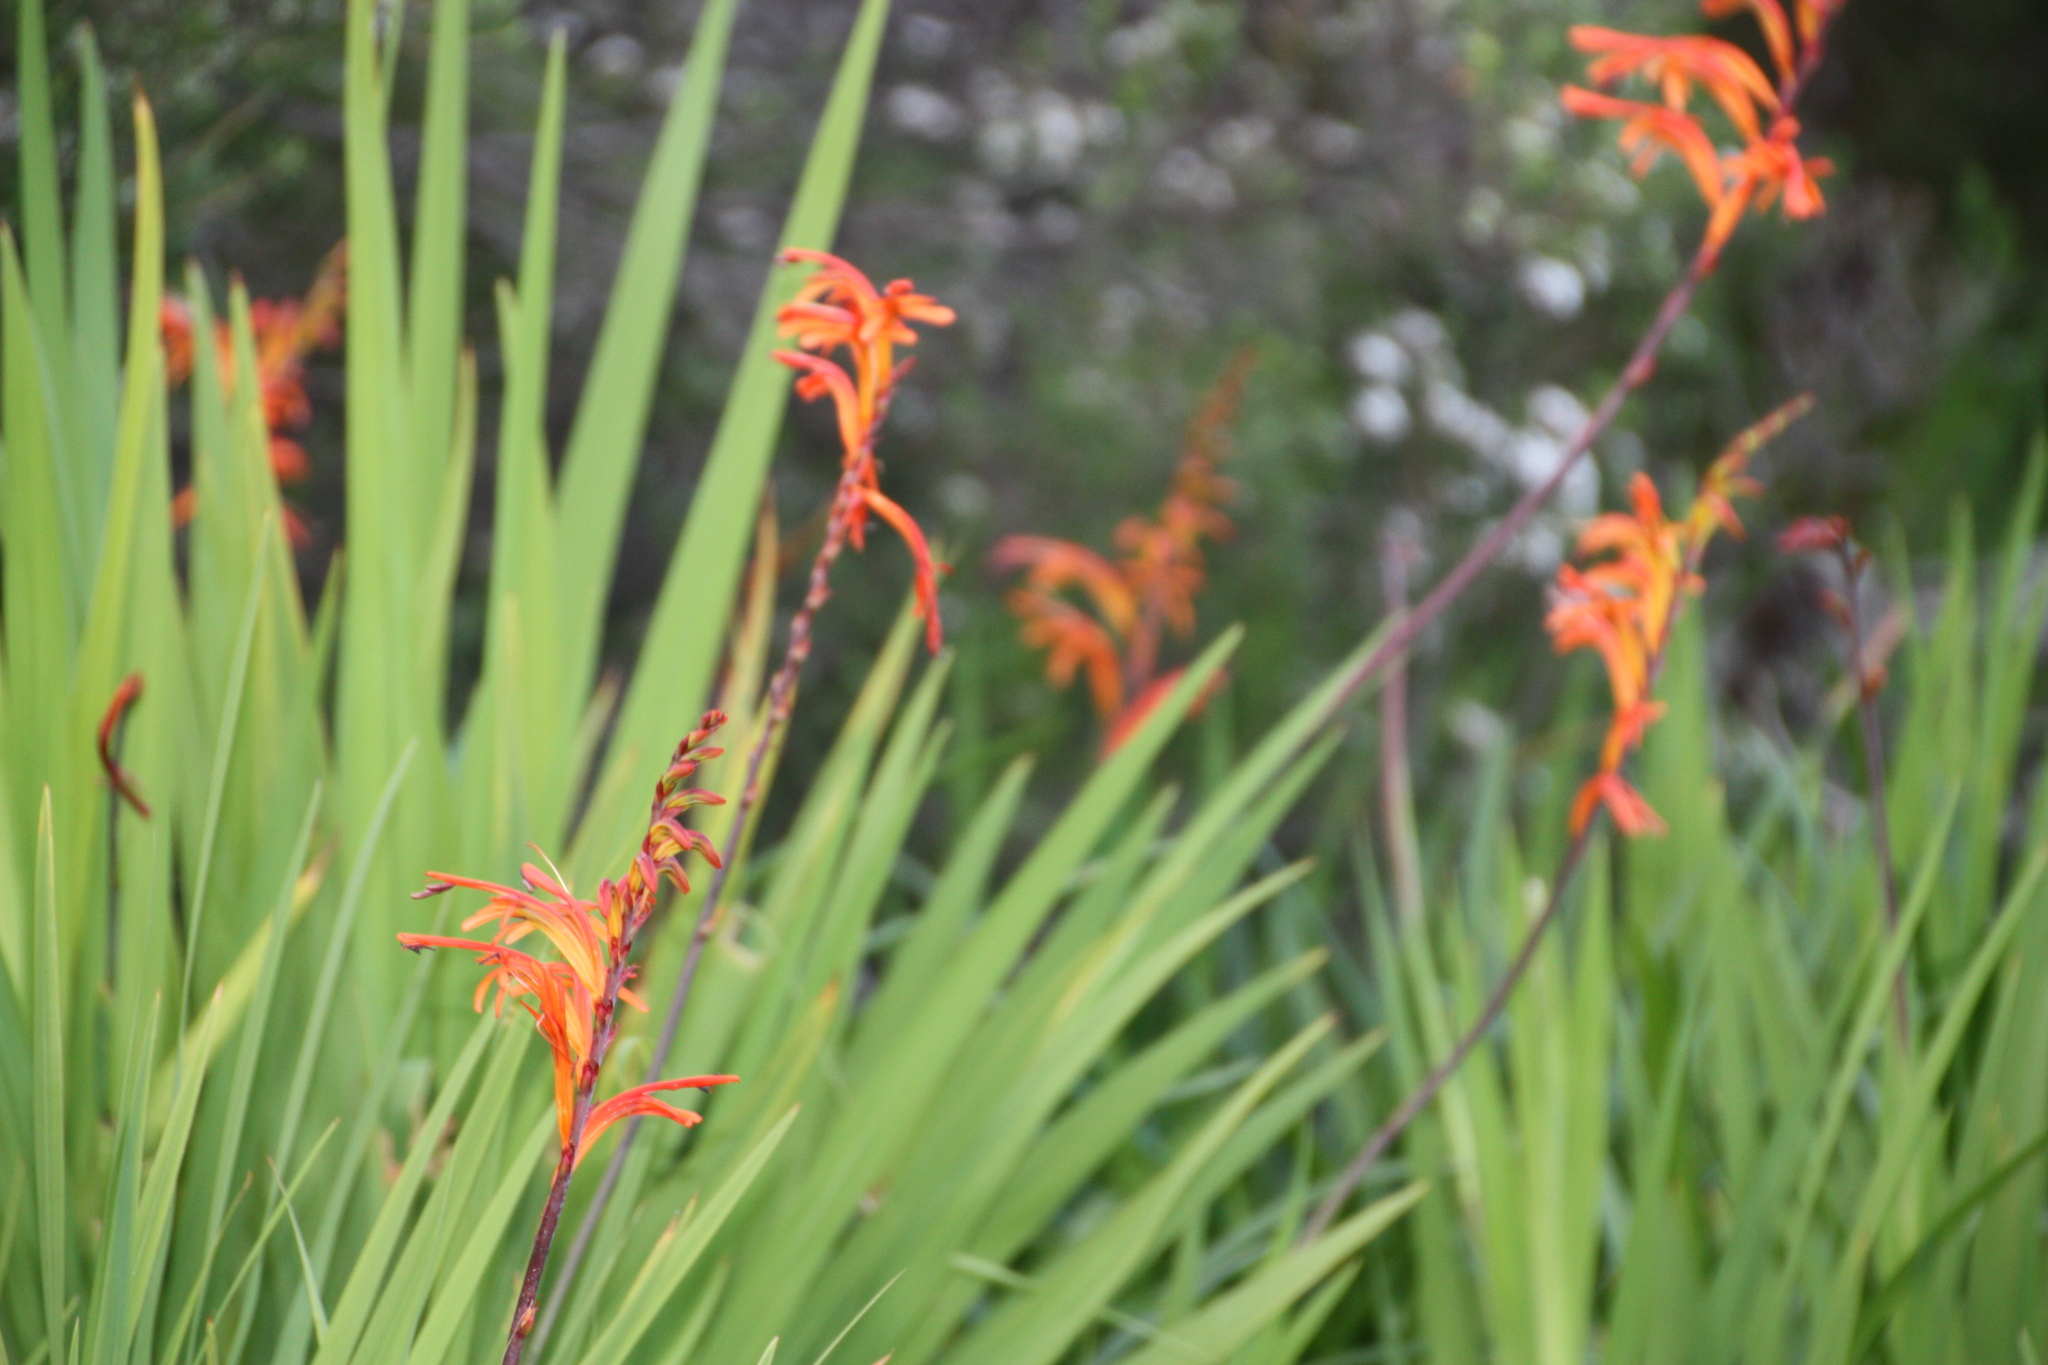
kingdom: Plantae
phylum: Tracheophyta
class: Liliopsida
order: Asparagales
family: Iridaceae
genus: Chasmanthe
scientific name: Chasmanthe floribunda
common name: African cornflag
